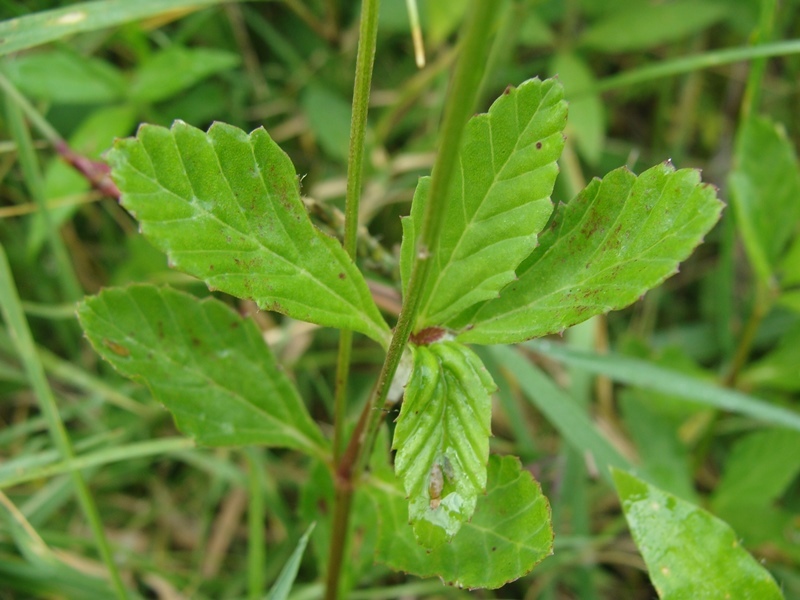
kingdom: Plantae
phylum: Tracheophyta
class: Magnoliopsida
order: Lamiales
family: Verbenaceae
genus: Phyla
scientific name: Phyla nodiflora
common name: Frogfruit
